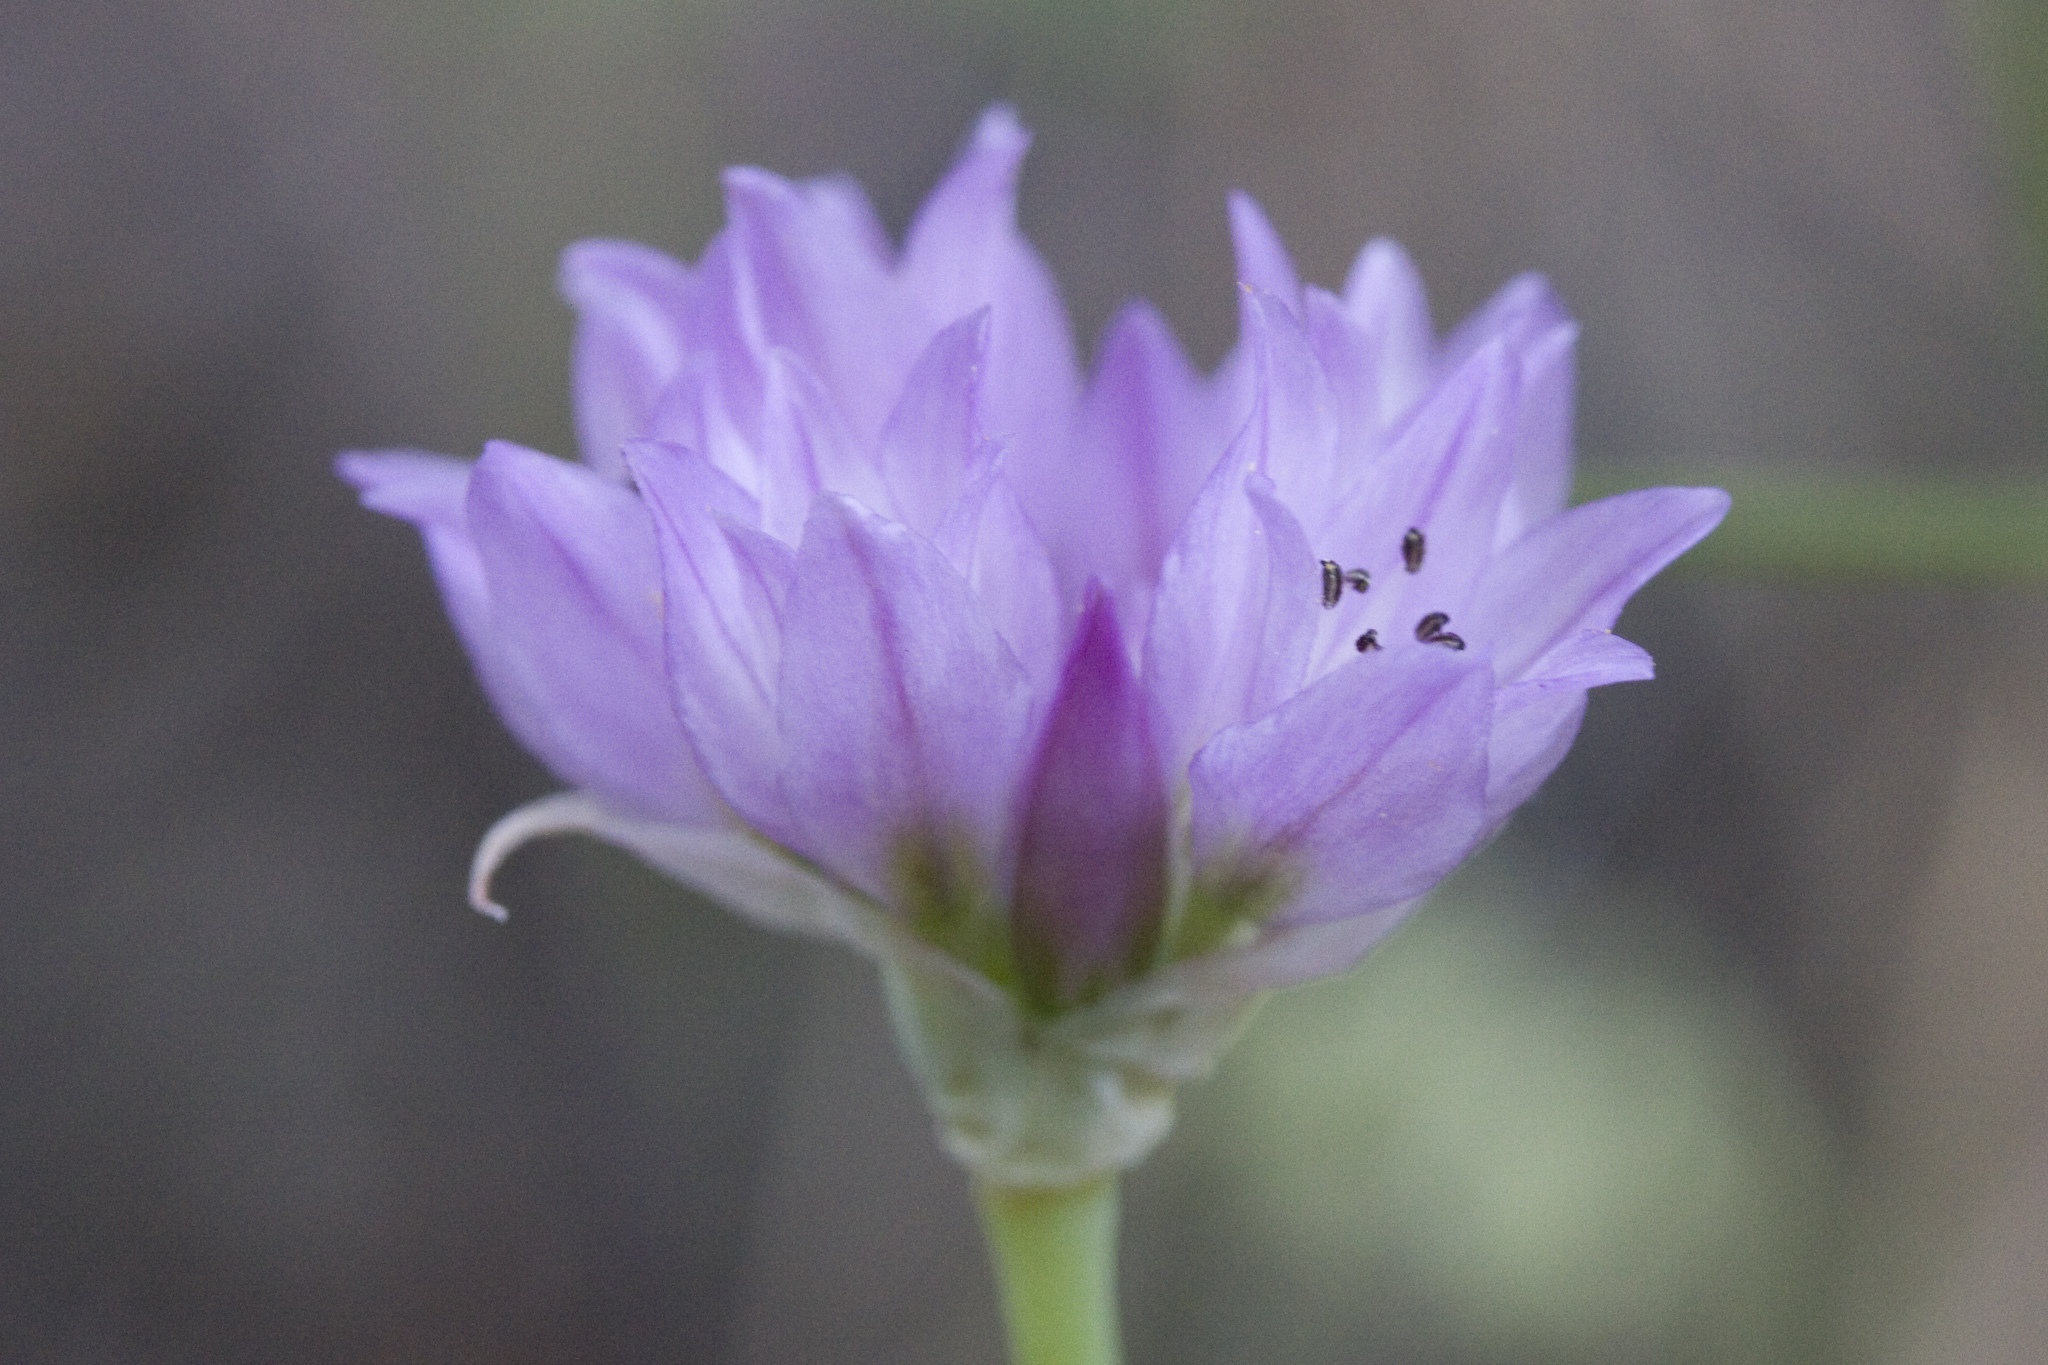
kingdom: Plantae
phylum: Tracheophyta
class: Liliopsida
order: Asparagales
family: Amaryllidaceae
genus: Allium
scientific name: Allium serra
